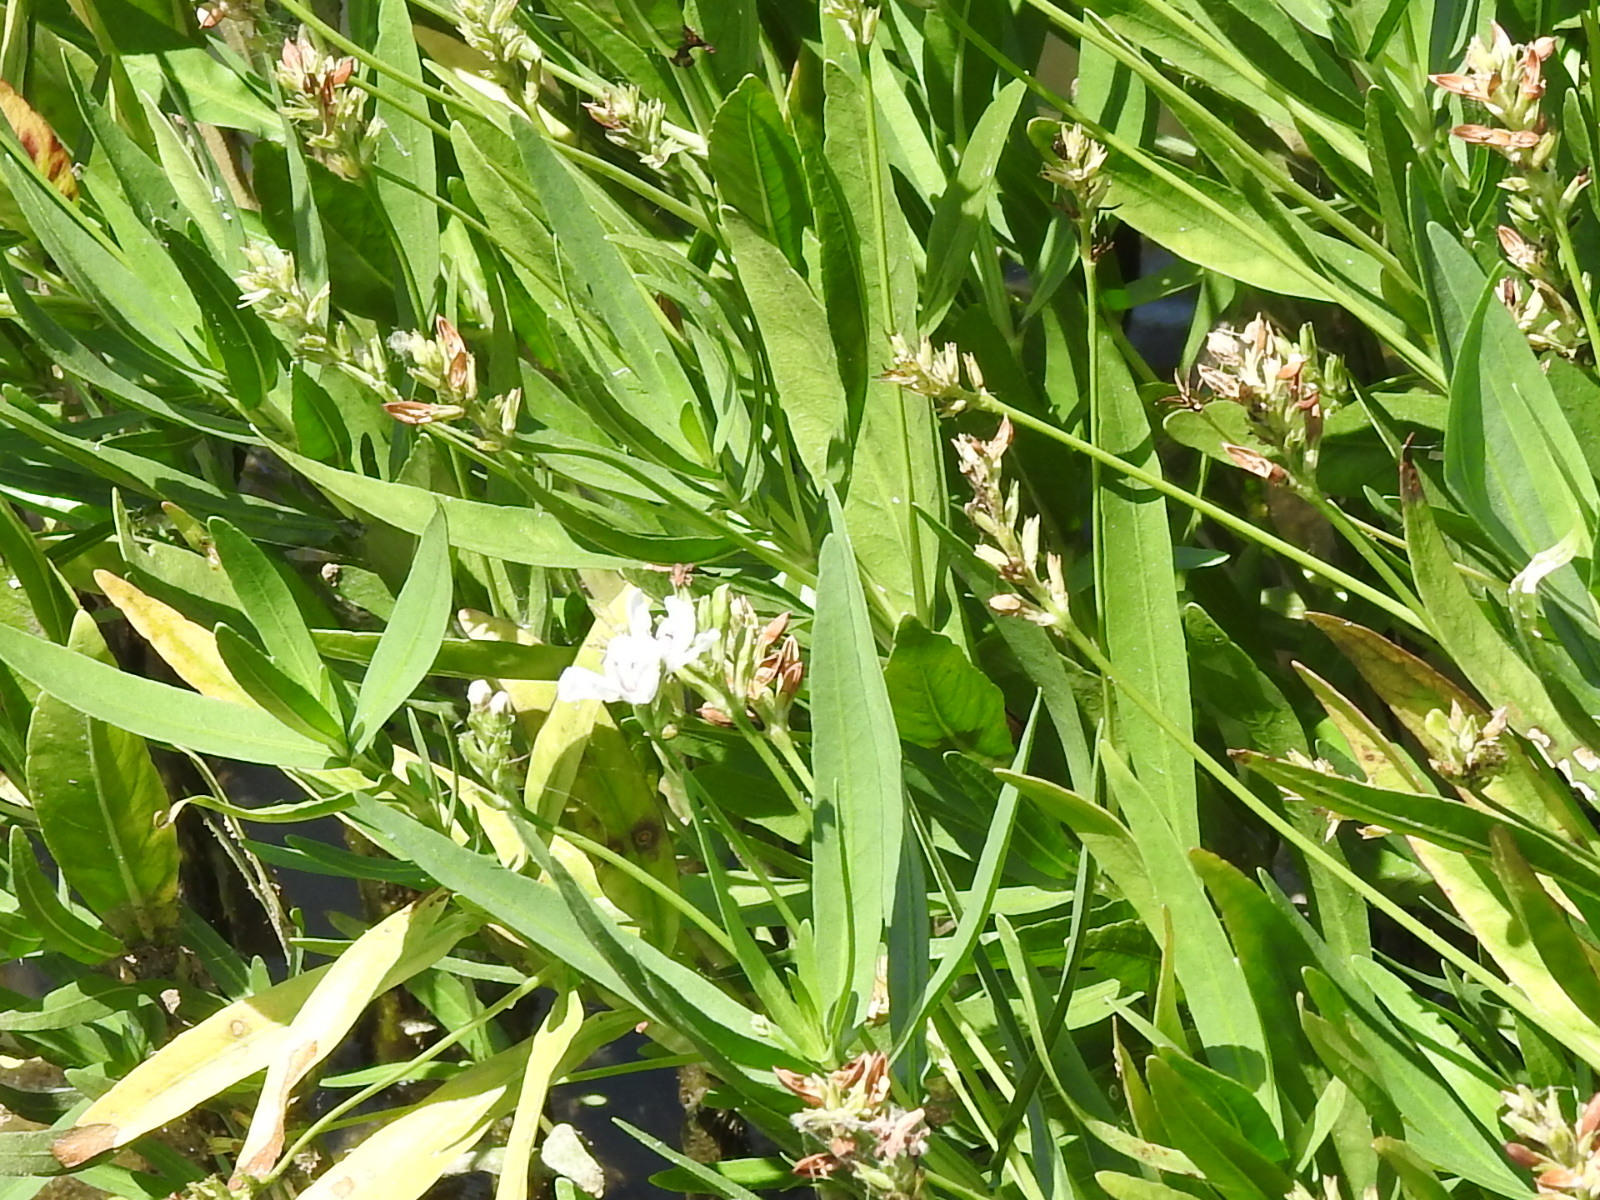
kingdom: Plantae
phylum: Tracheophyta
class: Magnoliopsida
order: Lamiales
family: Acanthaceae
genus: Dianthera
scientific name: Dianthera americana
